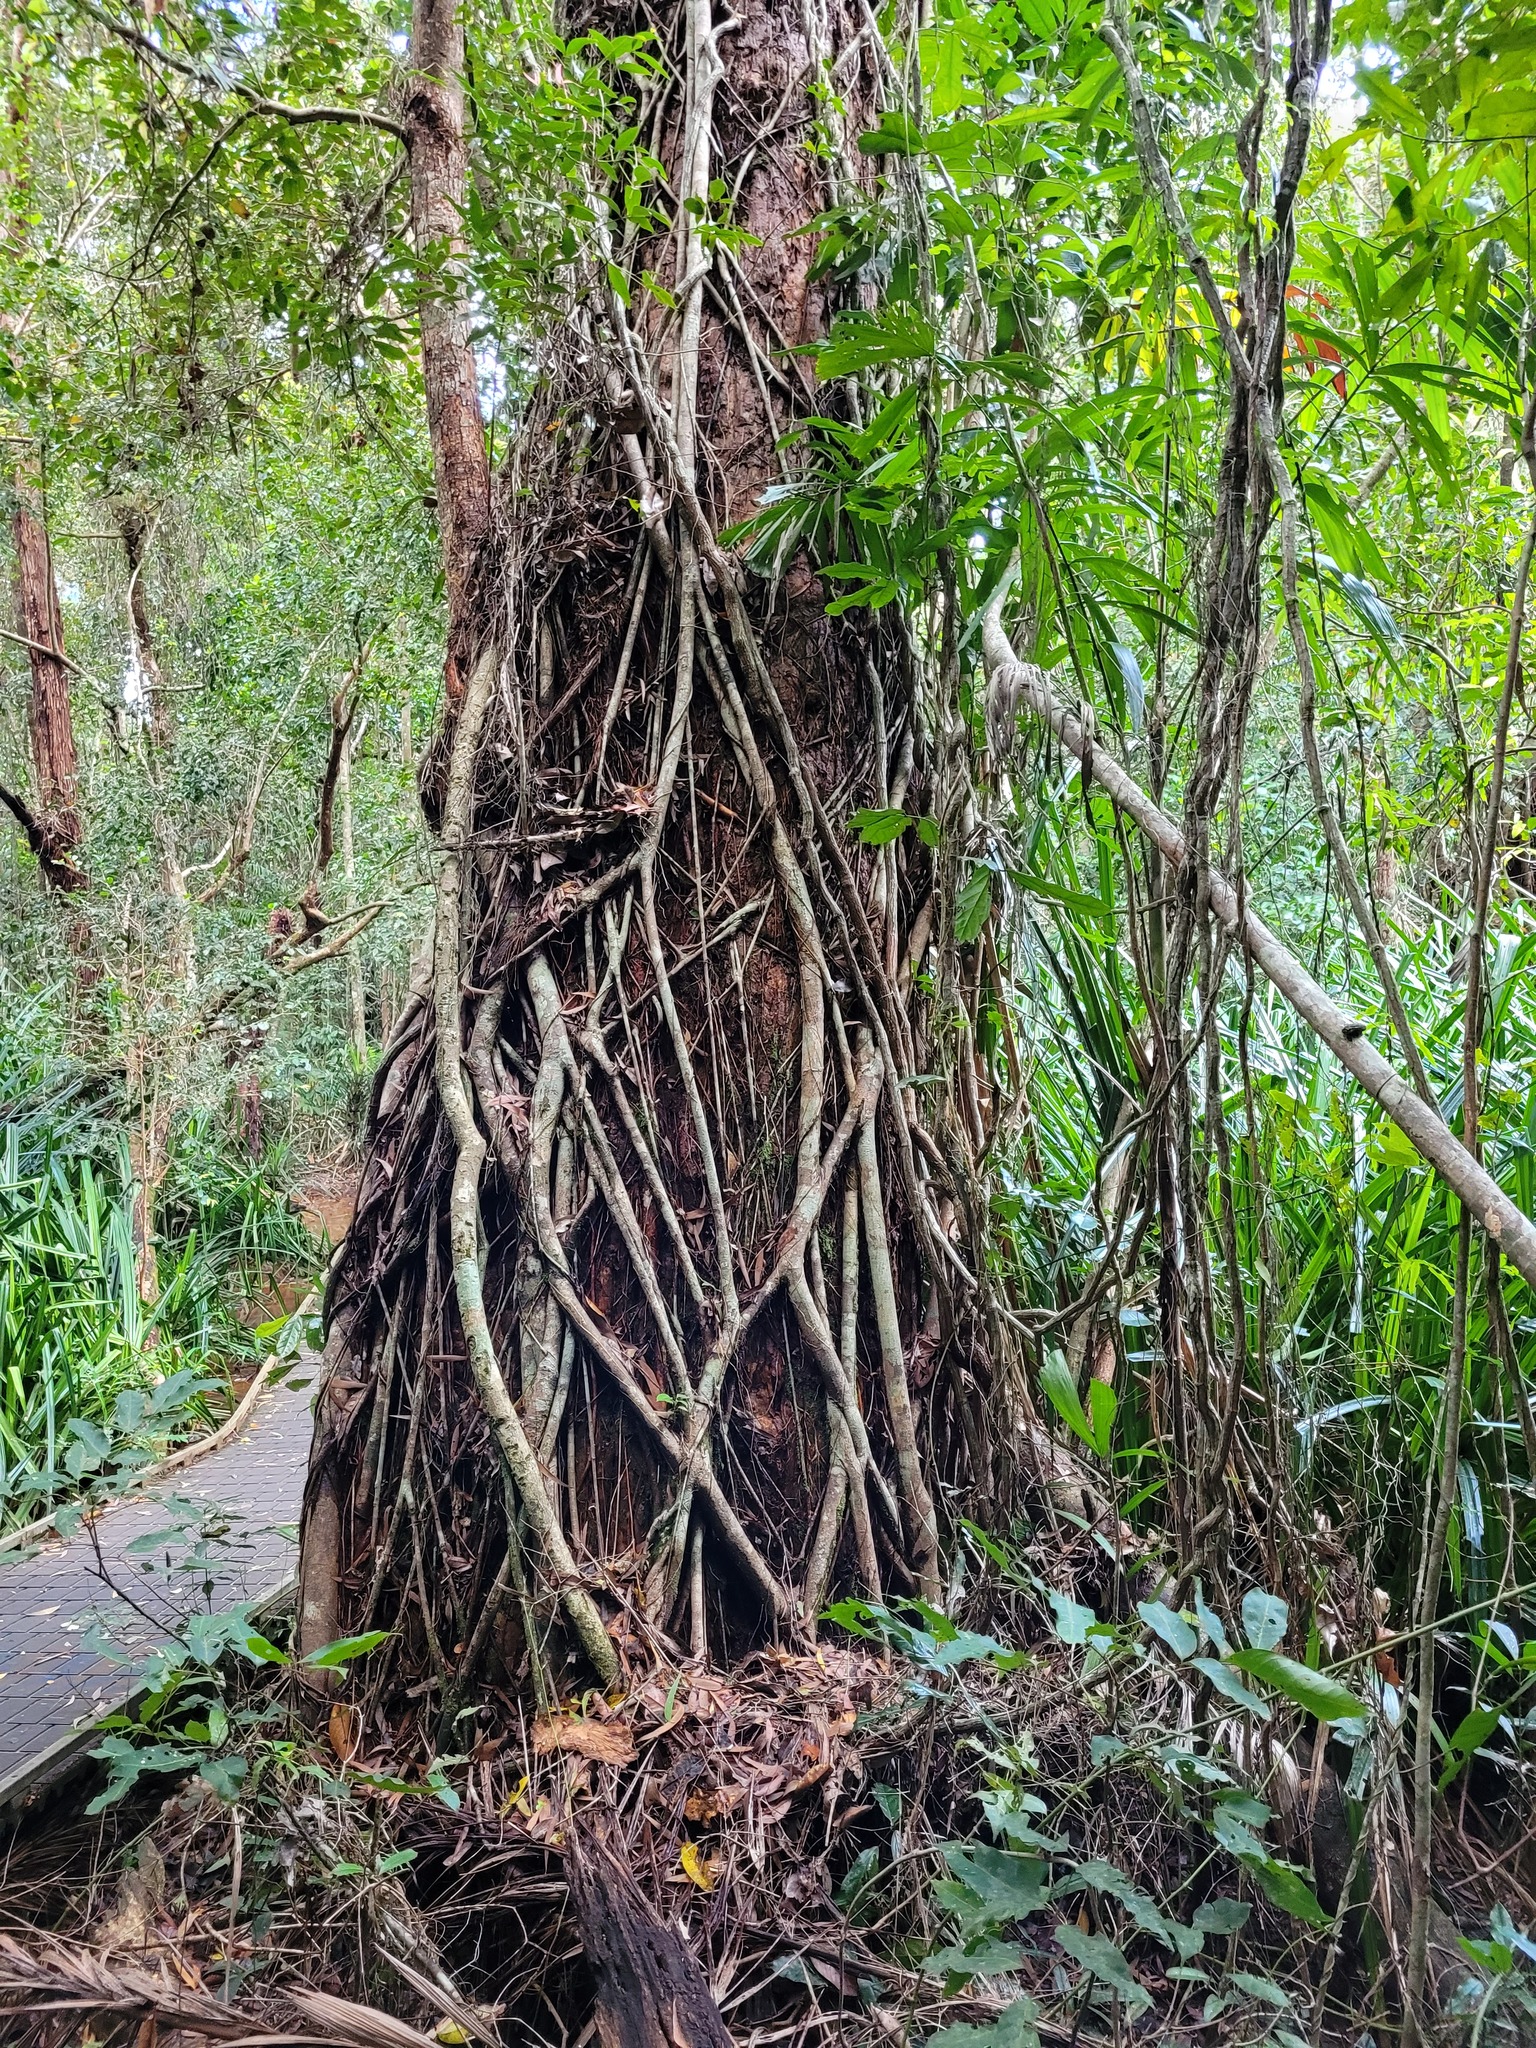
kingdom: Plantae
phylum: Tracheophyta
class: Magnoliopsida
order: Rosales
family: Moraceae
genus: Ficus
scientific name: Ficus
